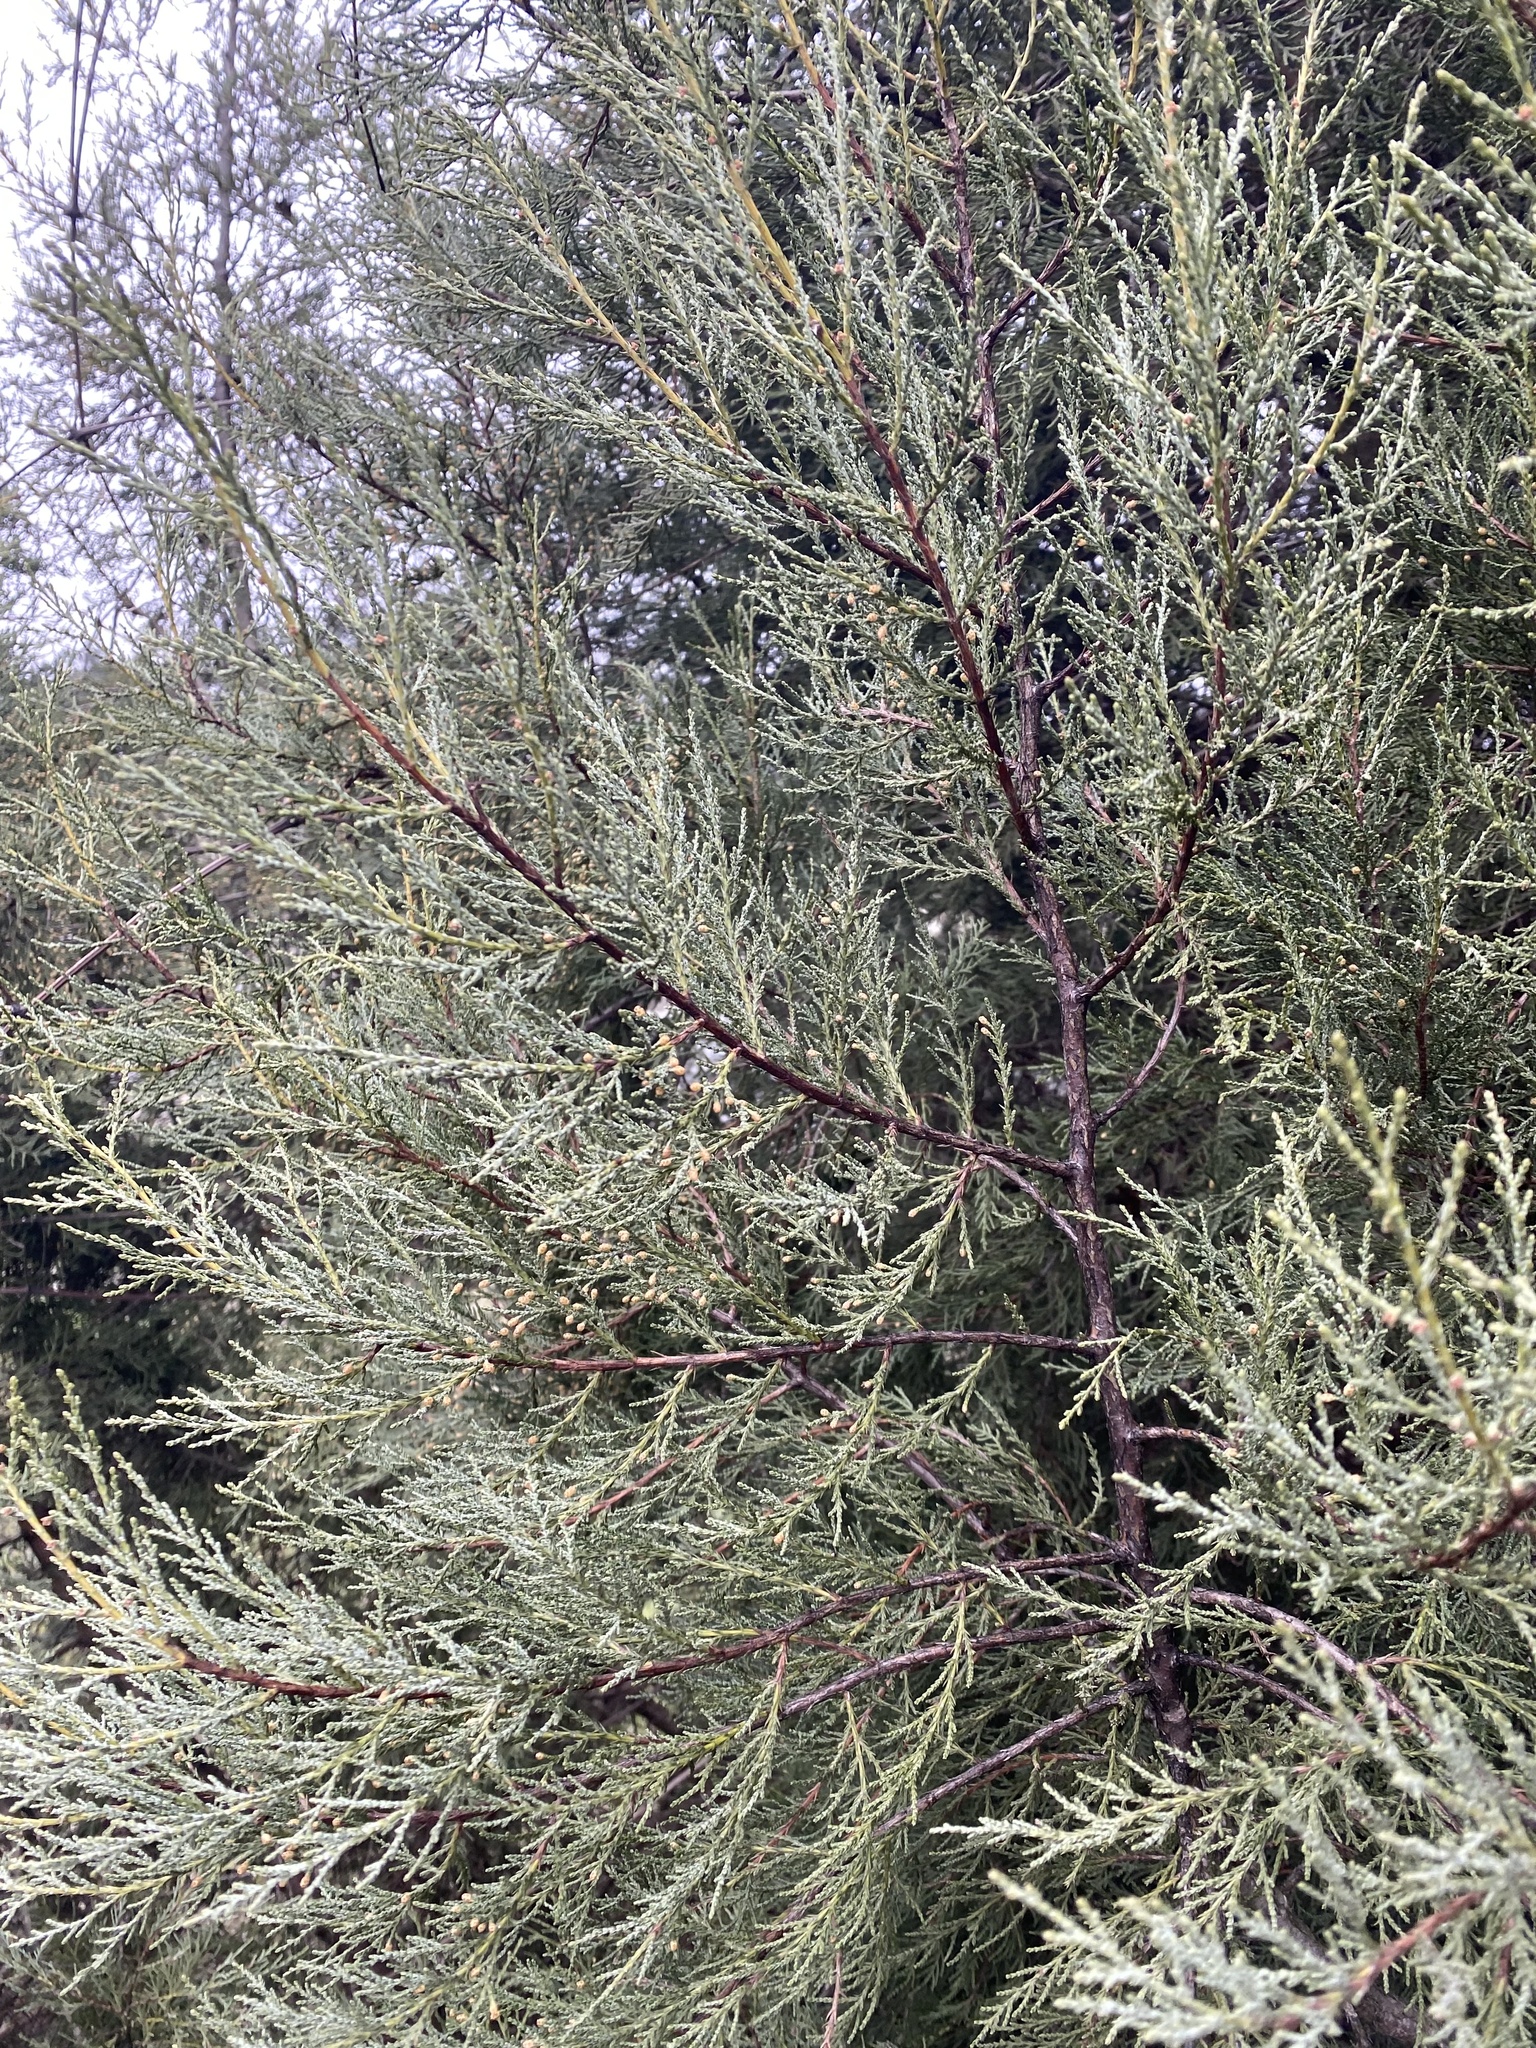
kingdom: Plantae
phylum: Tracheophyta
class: Pinopsida
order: Pinales
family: Cupressaceae
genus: Juniperus
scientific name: Juniperus excelsa
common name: Crimean juniper
